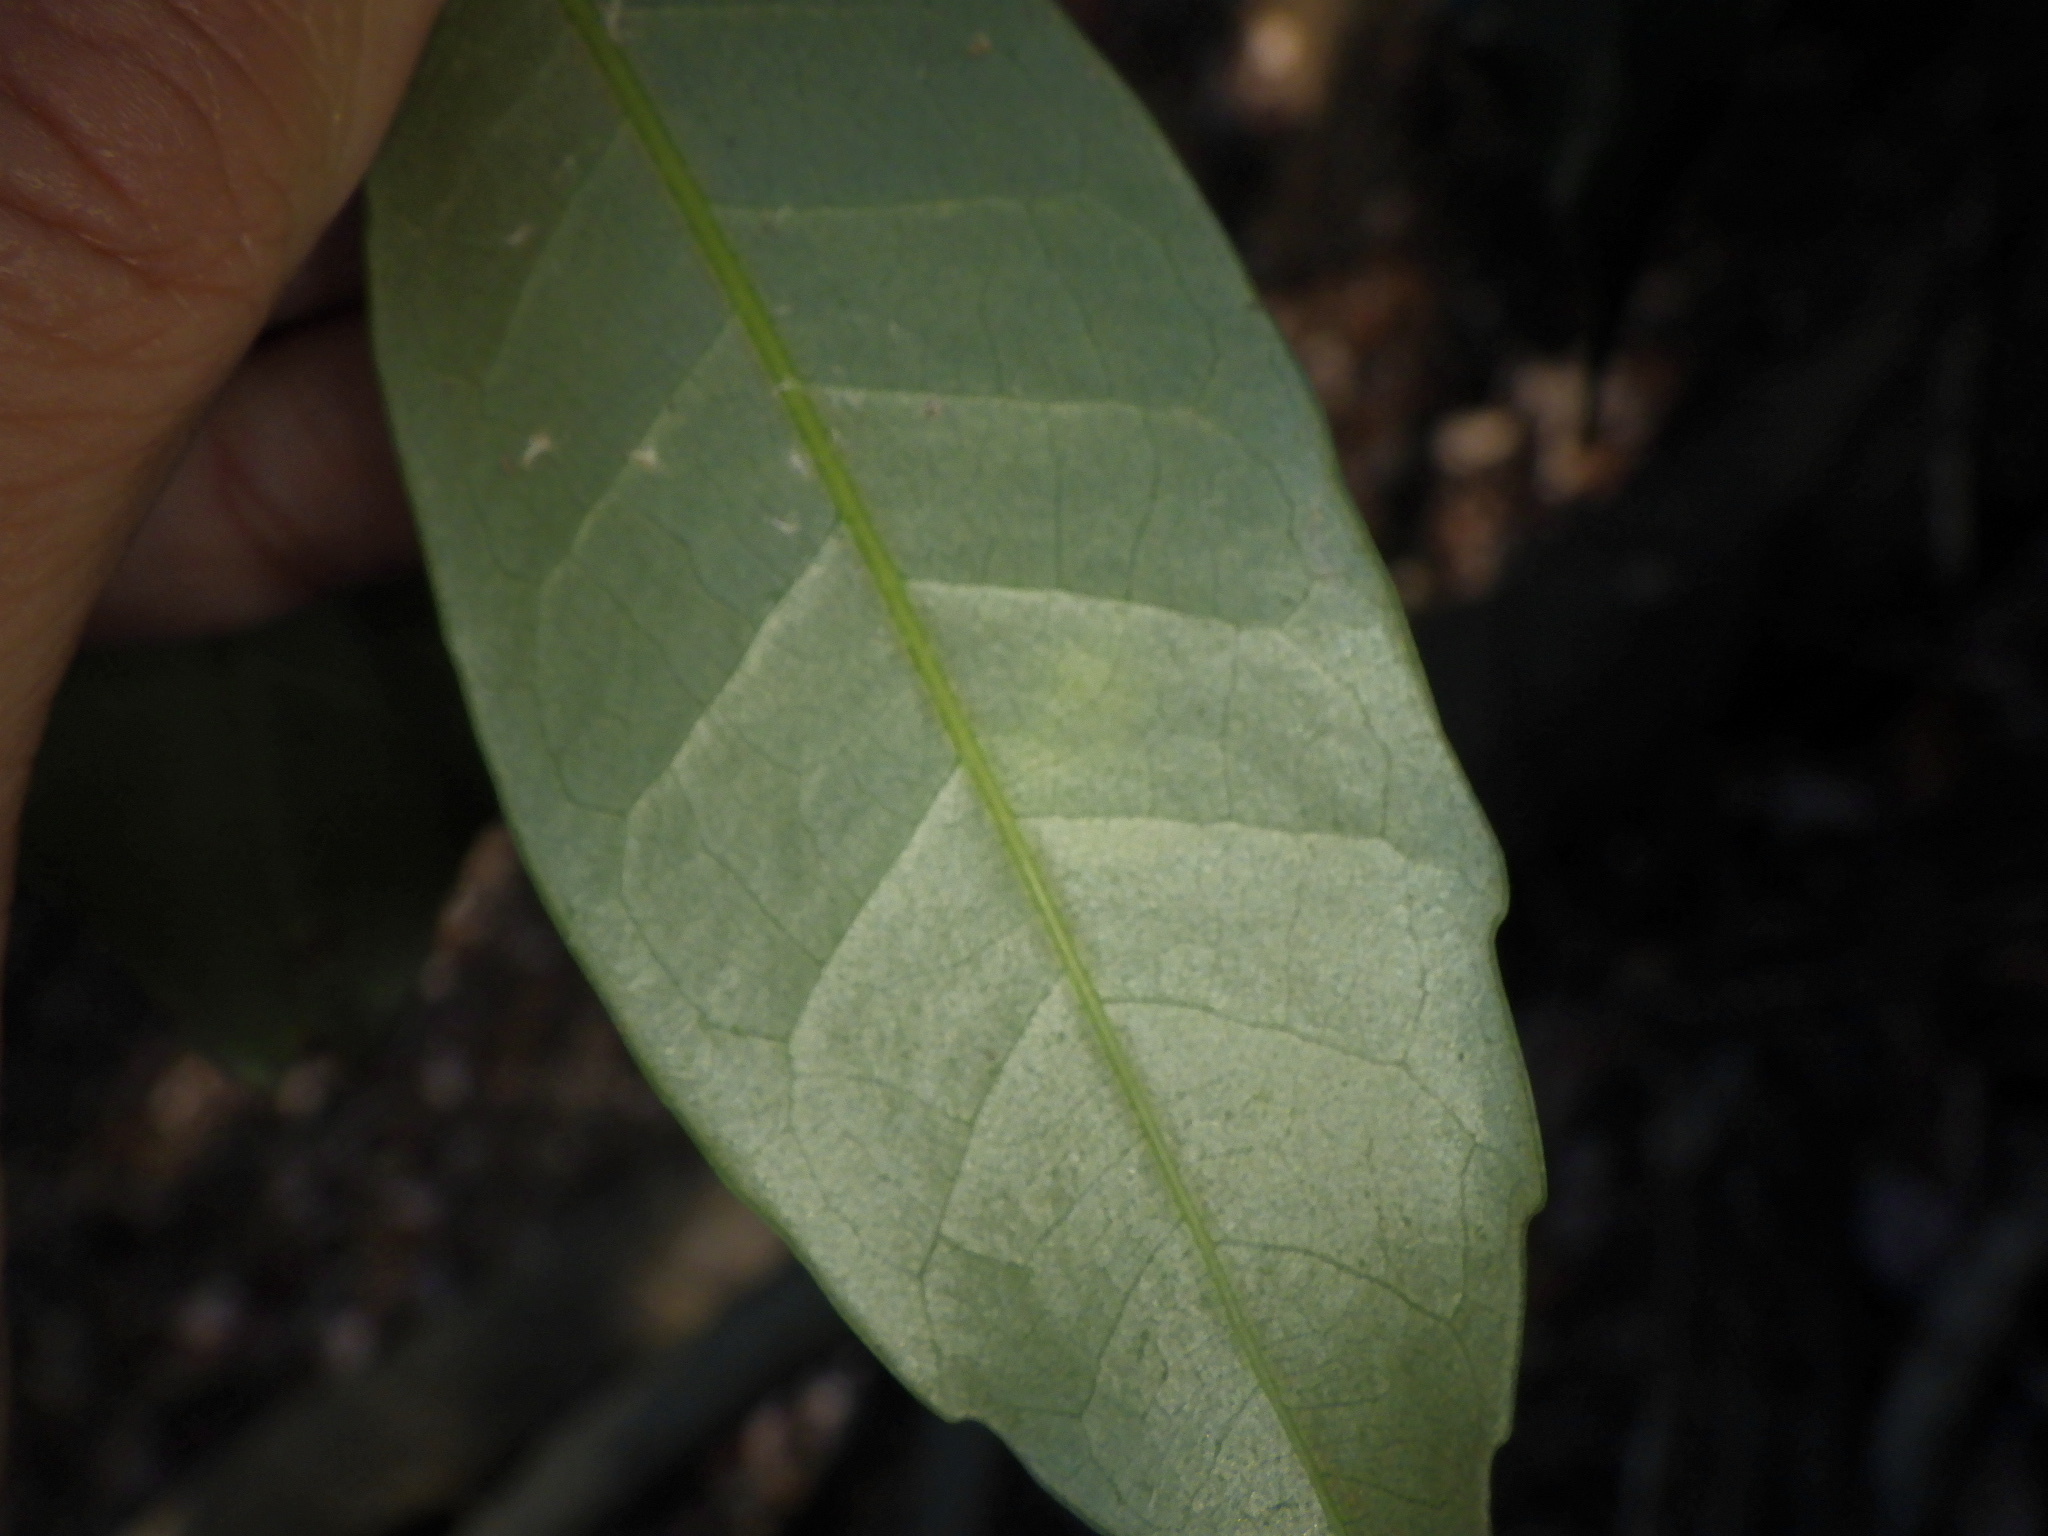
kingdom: Plantae
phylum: Tracheophyta
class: Magnoliopsida
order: Fagales
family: Fagaceae
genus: Castanopsis
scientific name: Castanopsis sieboldii
